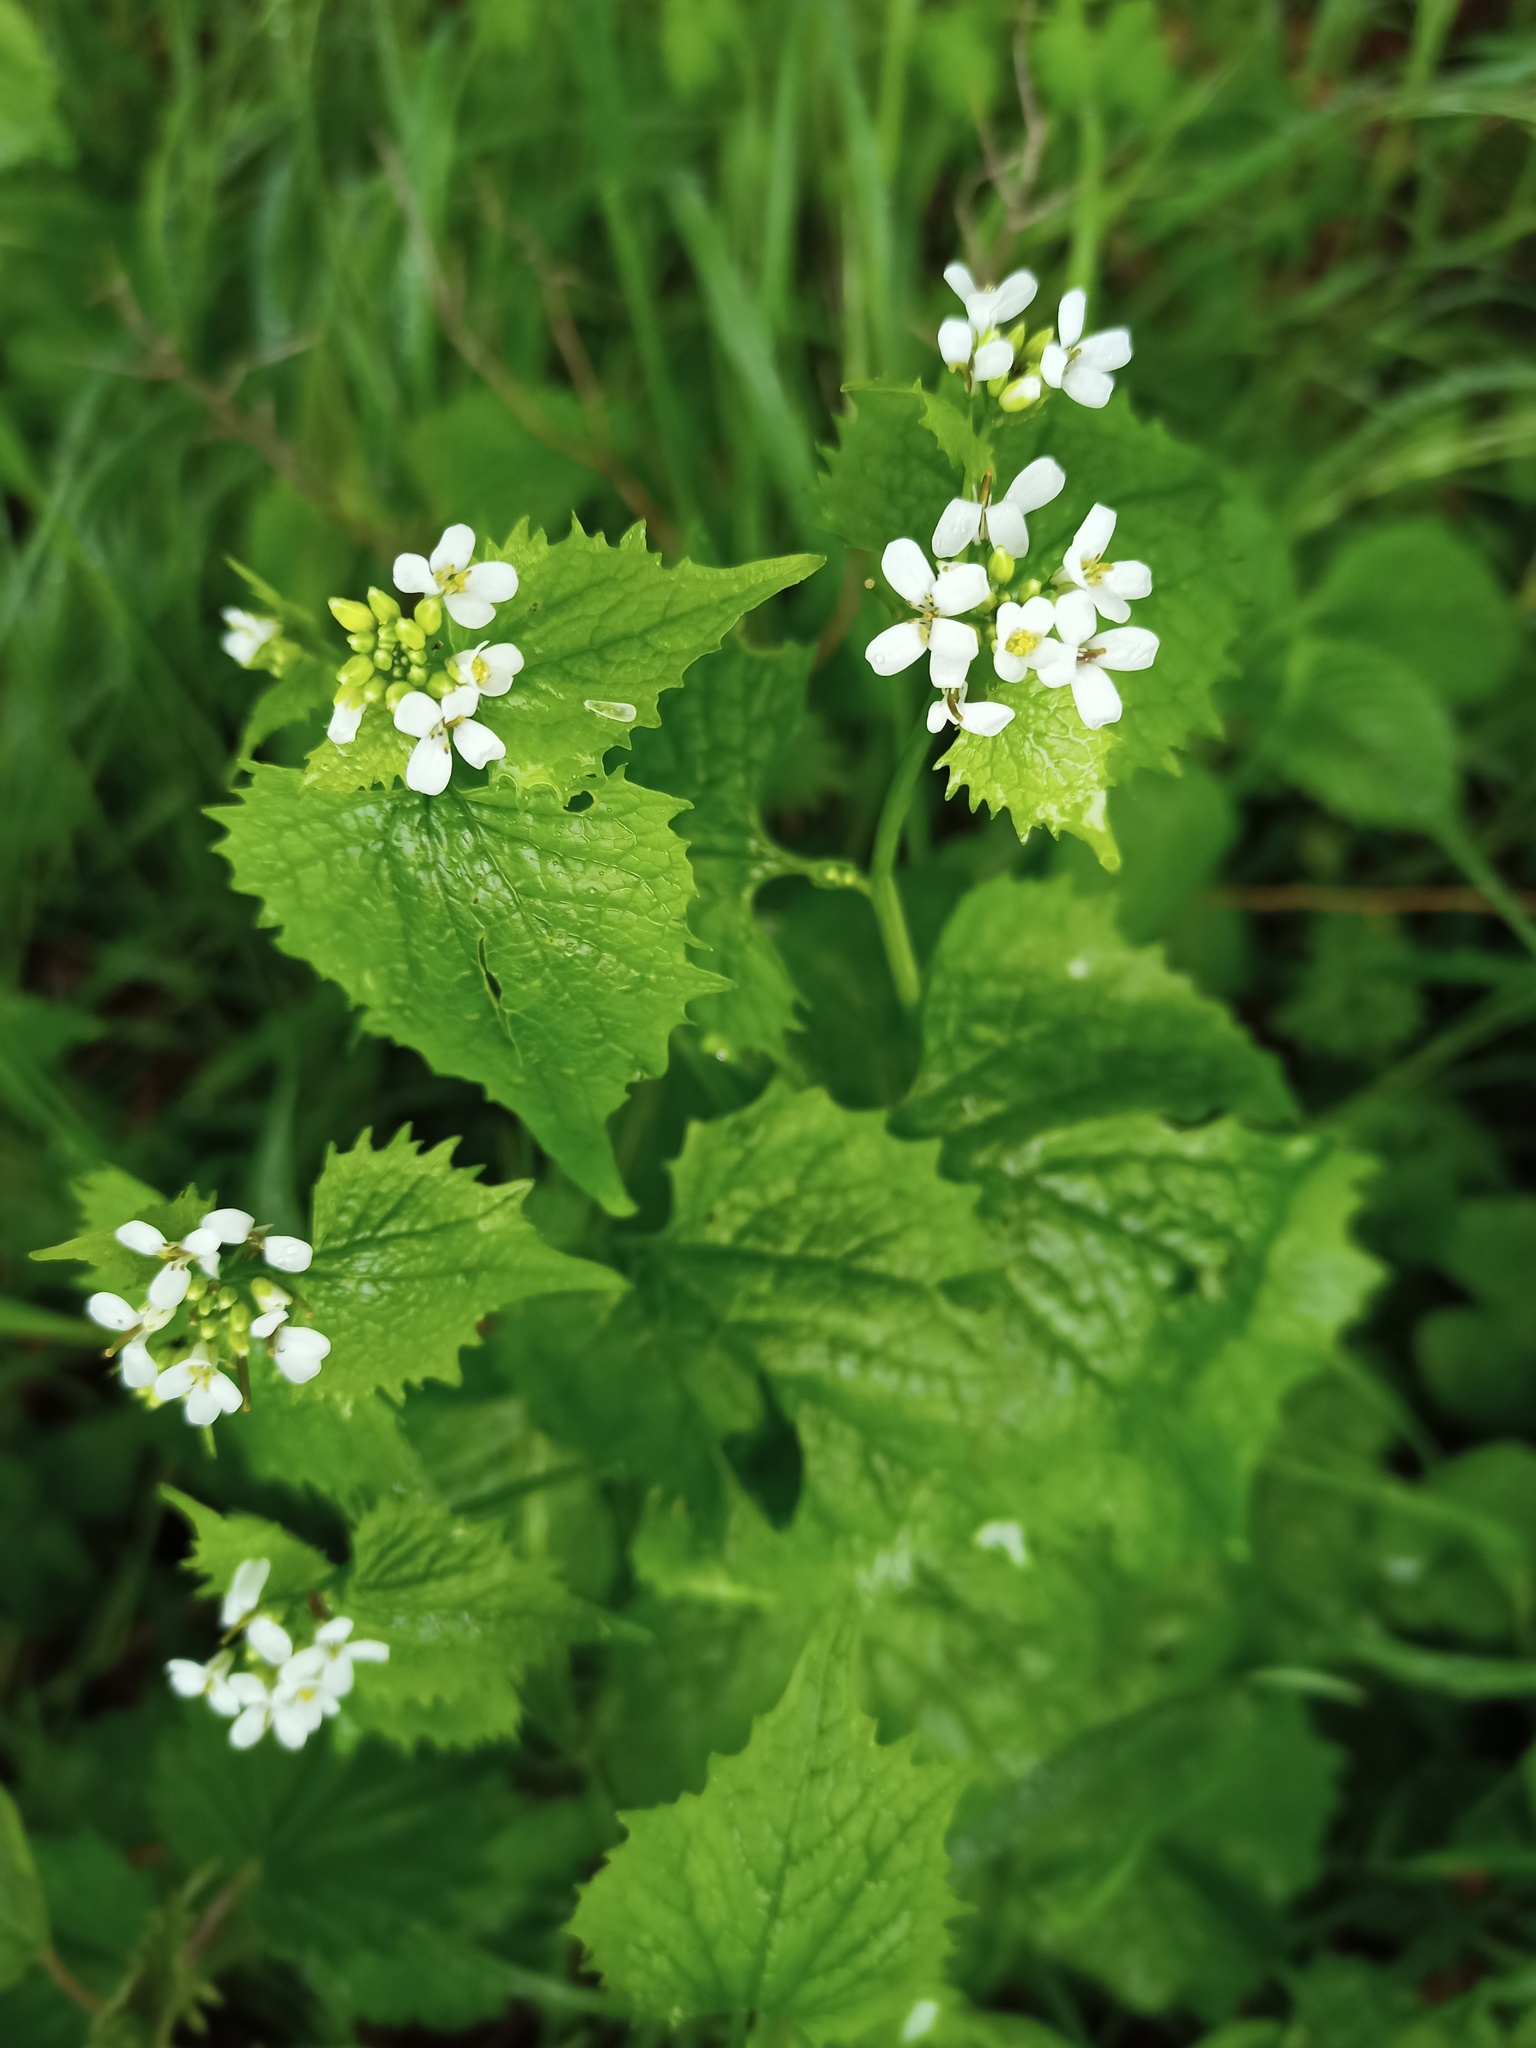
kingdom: Plantae
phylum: Tracheophyta
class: Magnoliopsida
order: Brassicales
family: Brassicaceae
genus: Alliaria
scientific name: Alliaria petiolata
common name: Garlic mustard
